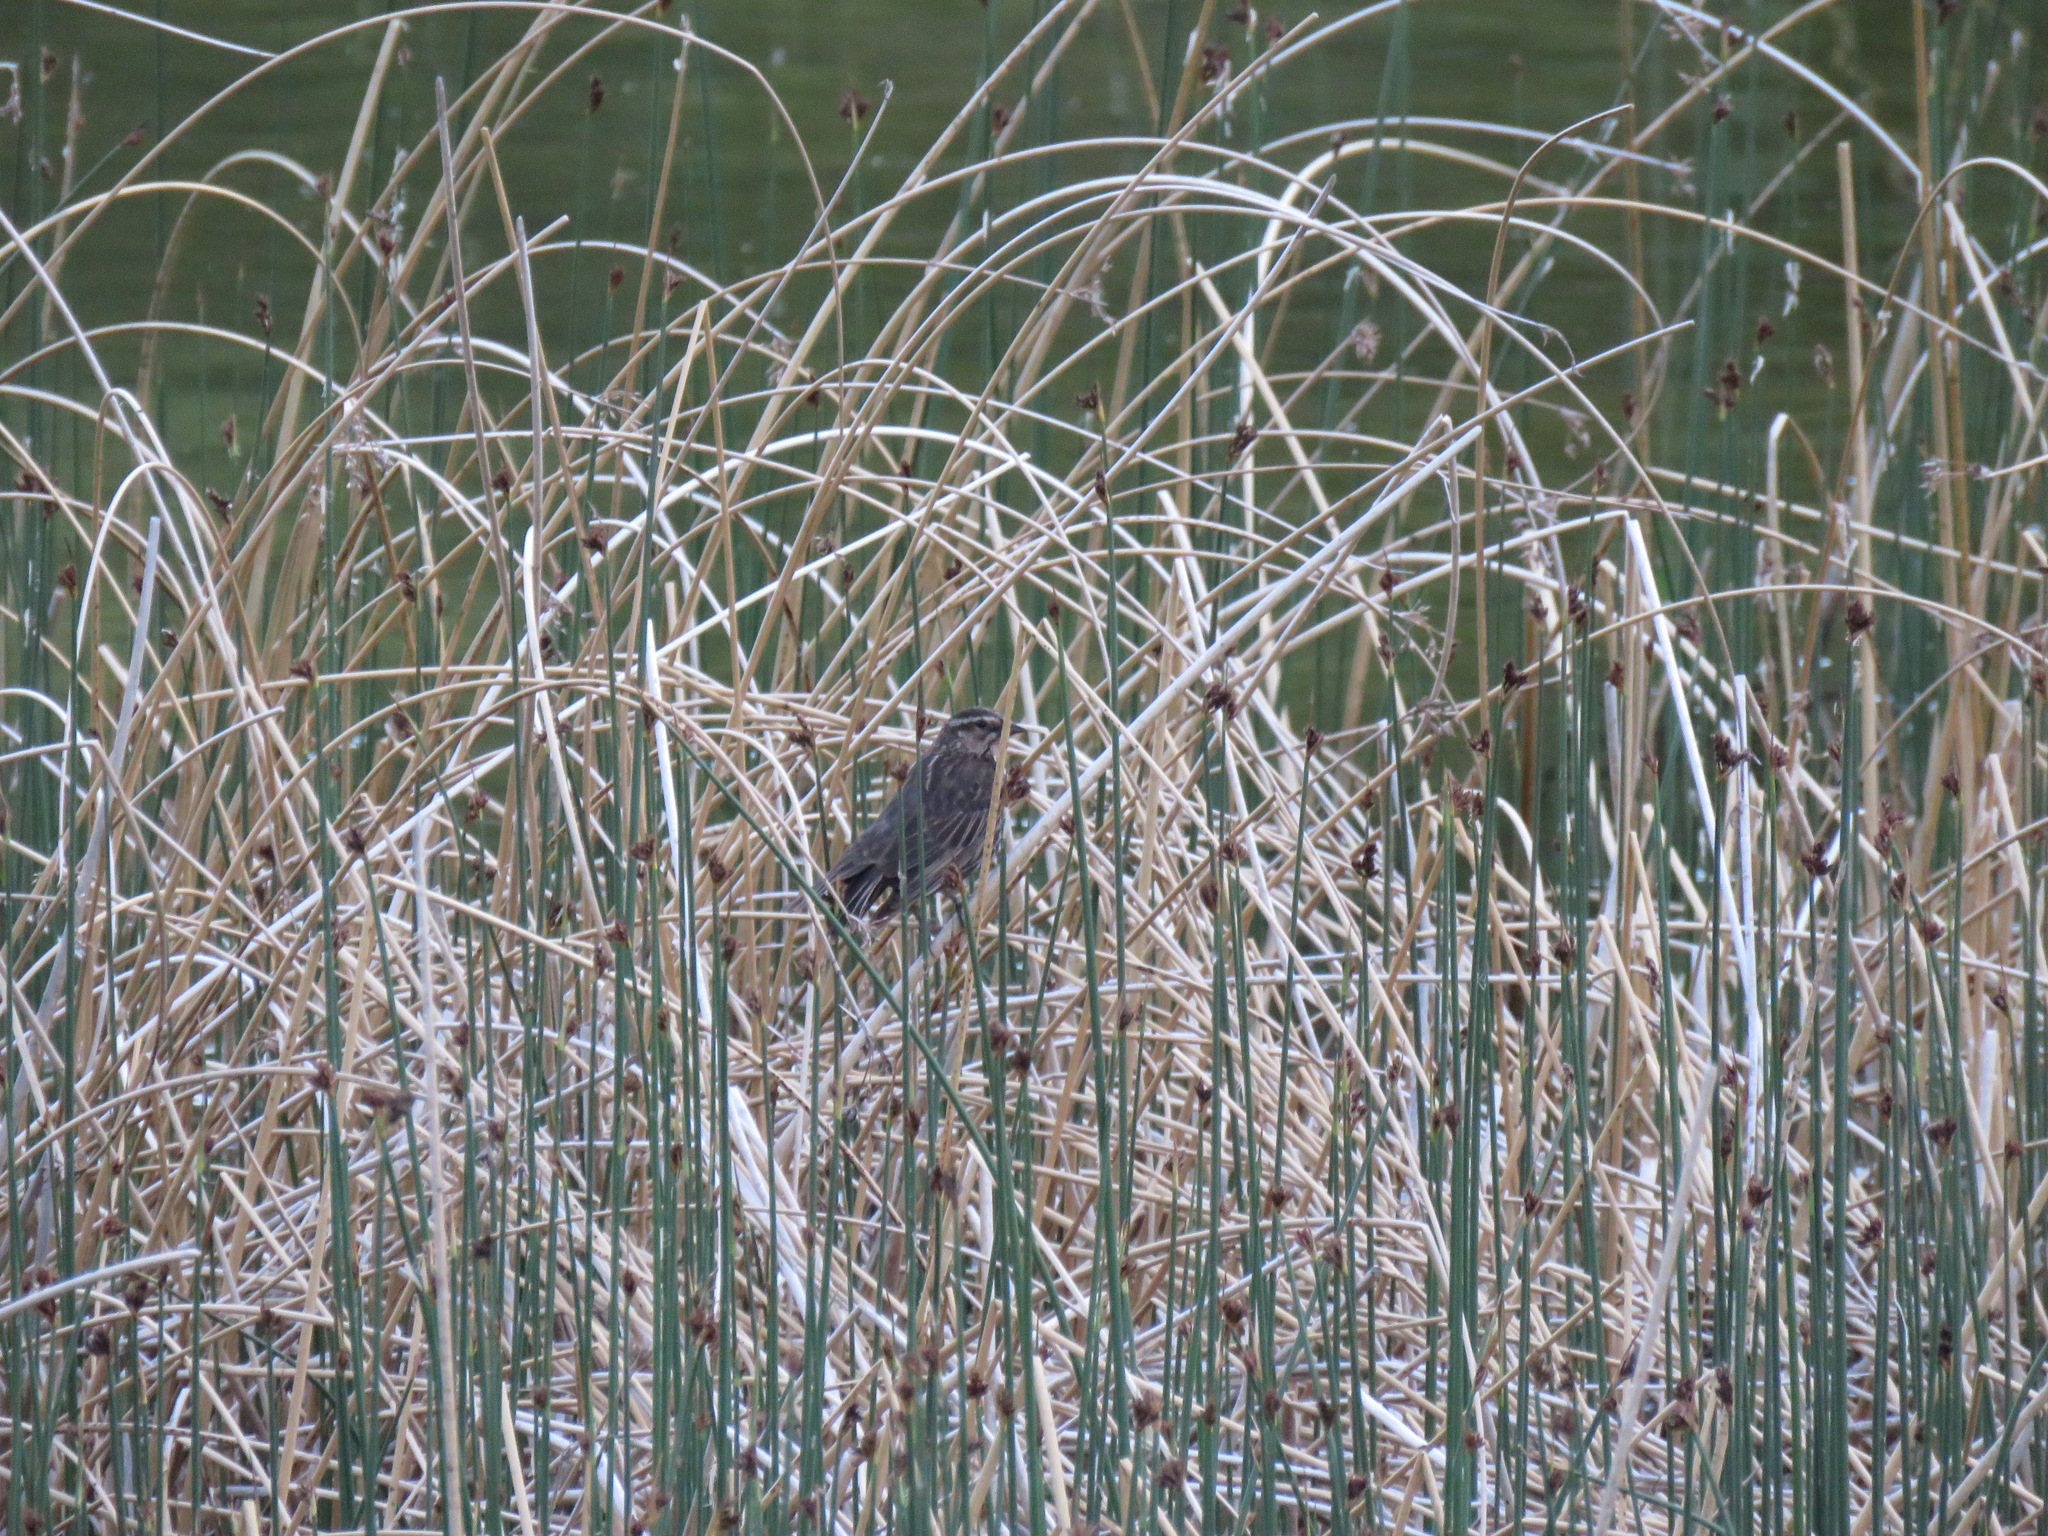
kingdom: Animalia
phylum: Chordata
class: Aves
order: Passeriformes
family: Icteridae
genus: Agelaius
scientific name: Agelaius phoeniceus
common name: Red-winged blackbird
